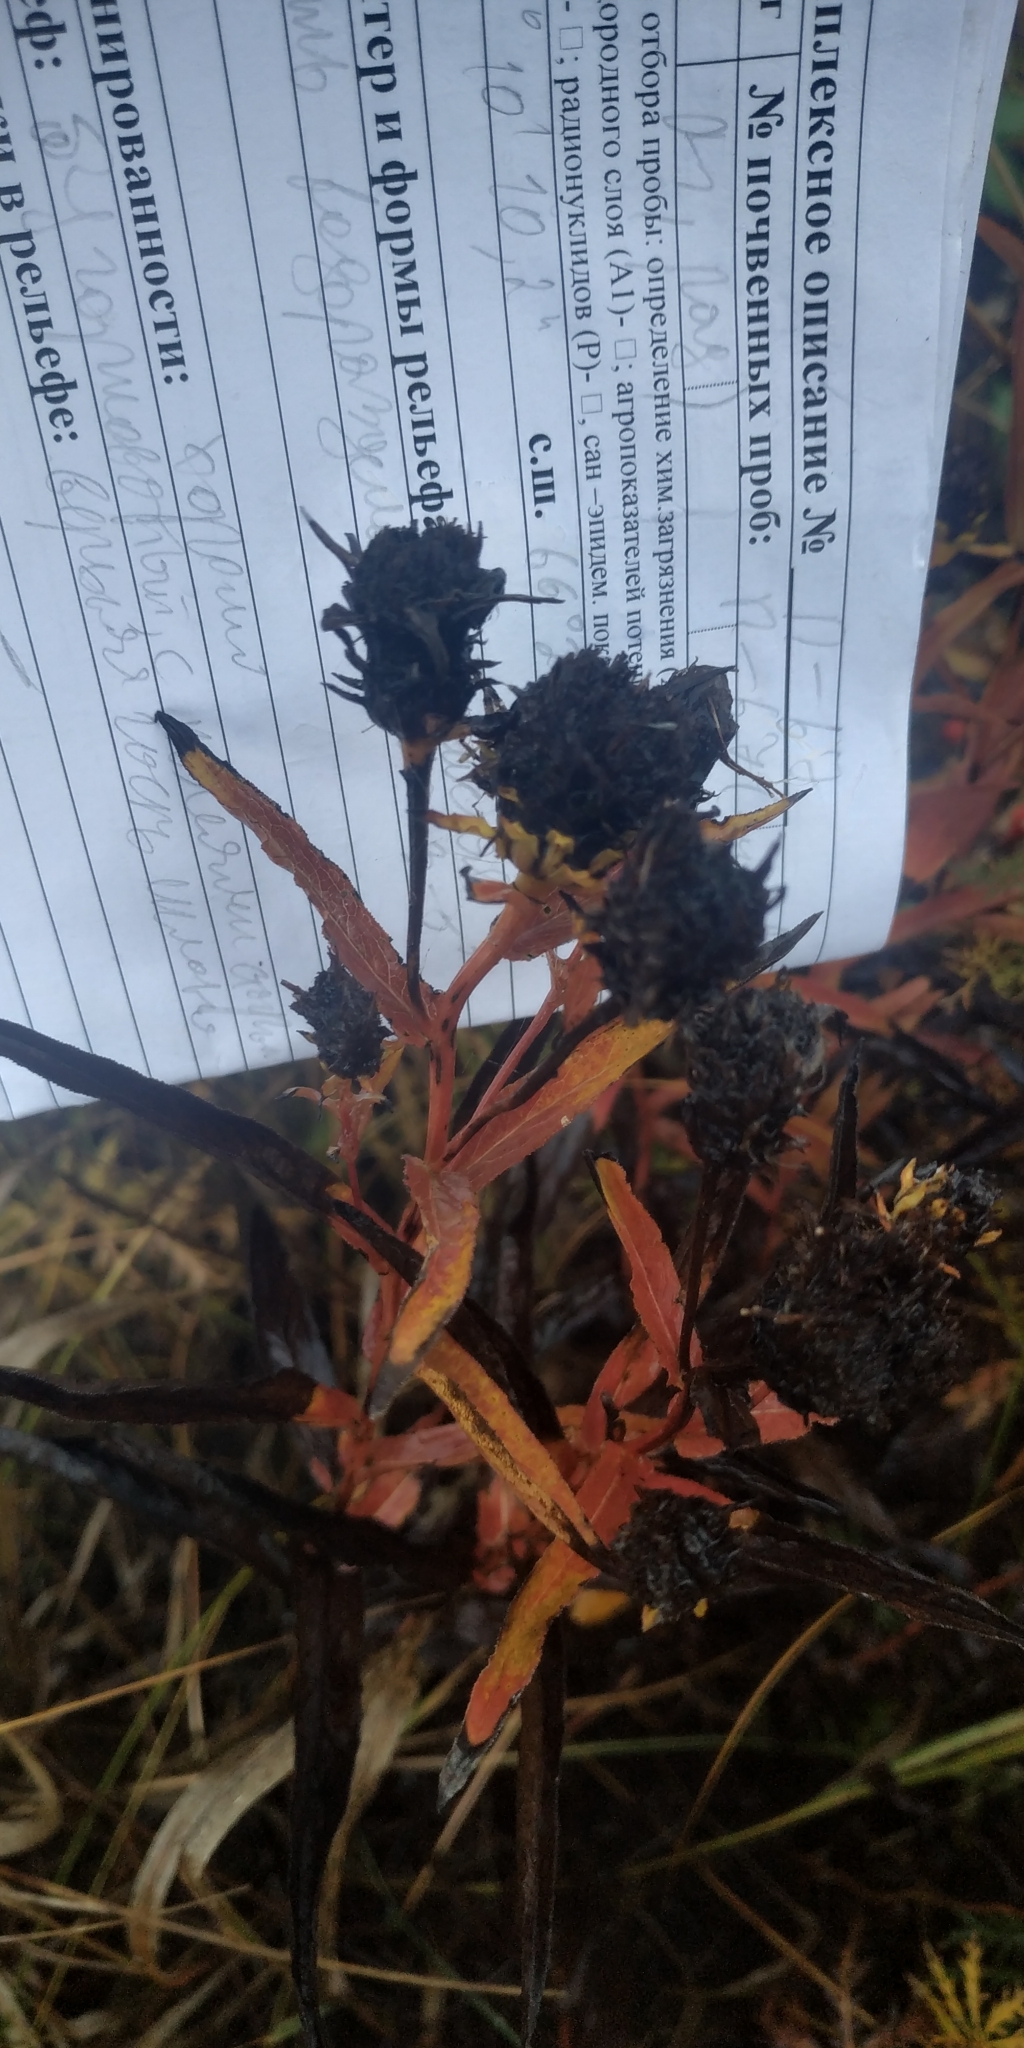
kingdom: Plantae
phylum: Tracheophyta
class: Magnoliopsida
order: Asterales
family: Asteraceae
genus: Pentanema
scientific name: Pentanema salicinum
